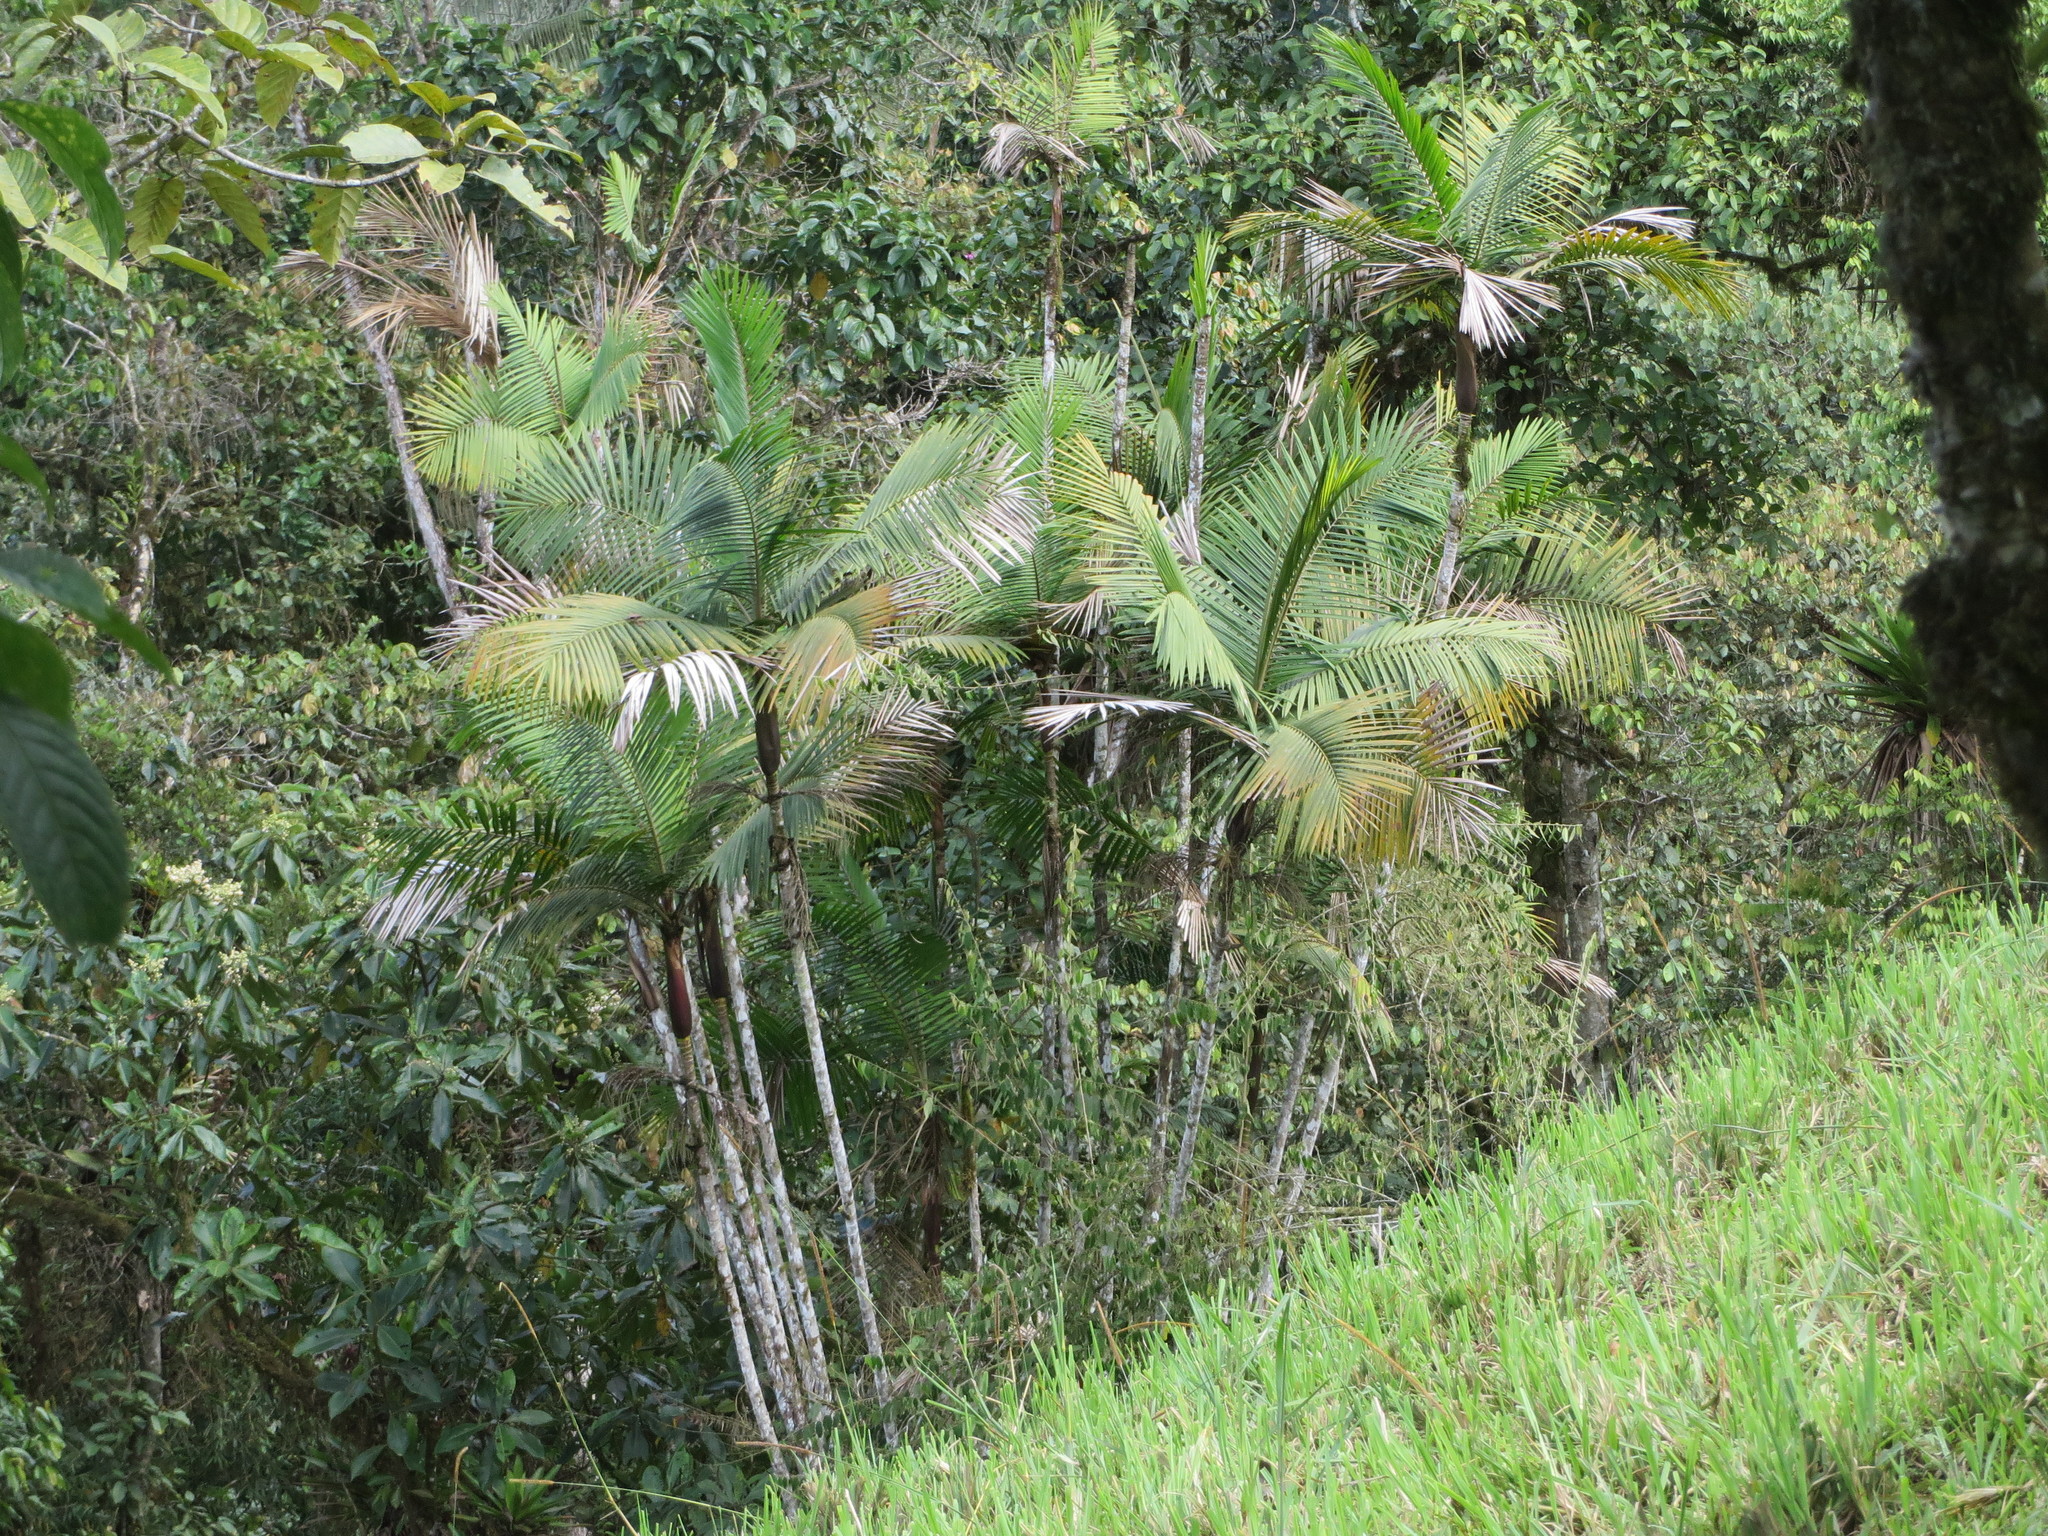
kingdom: Plantae
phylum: Tracheophyta
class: Liliopsida
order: Arecales
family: Arecaceae
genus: Prestoea
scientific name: Prestoea acuminata
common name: Sierran palm
